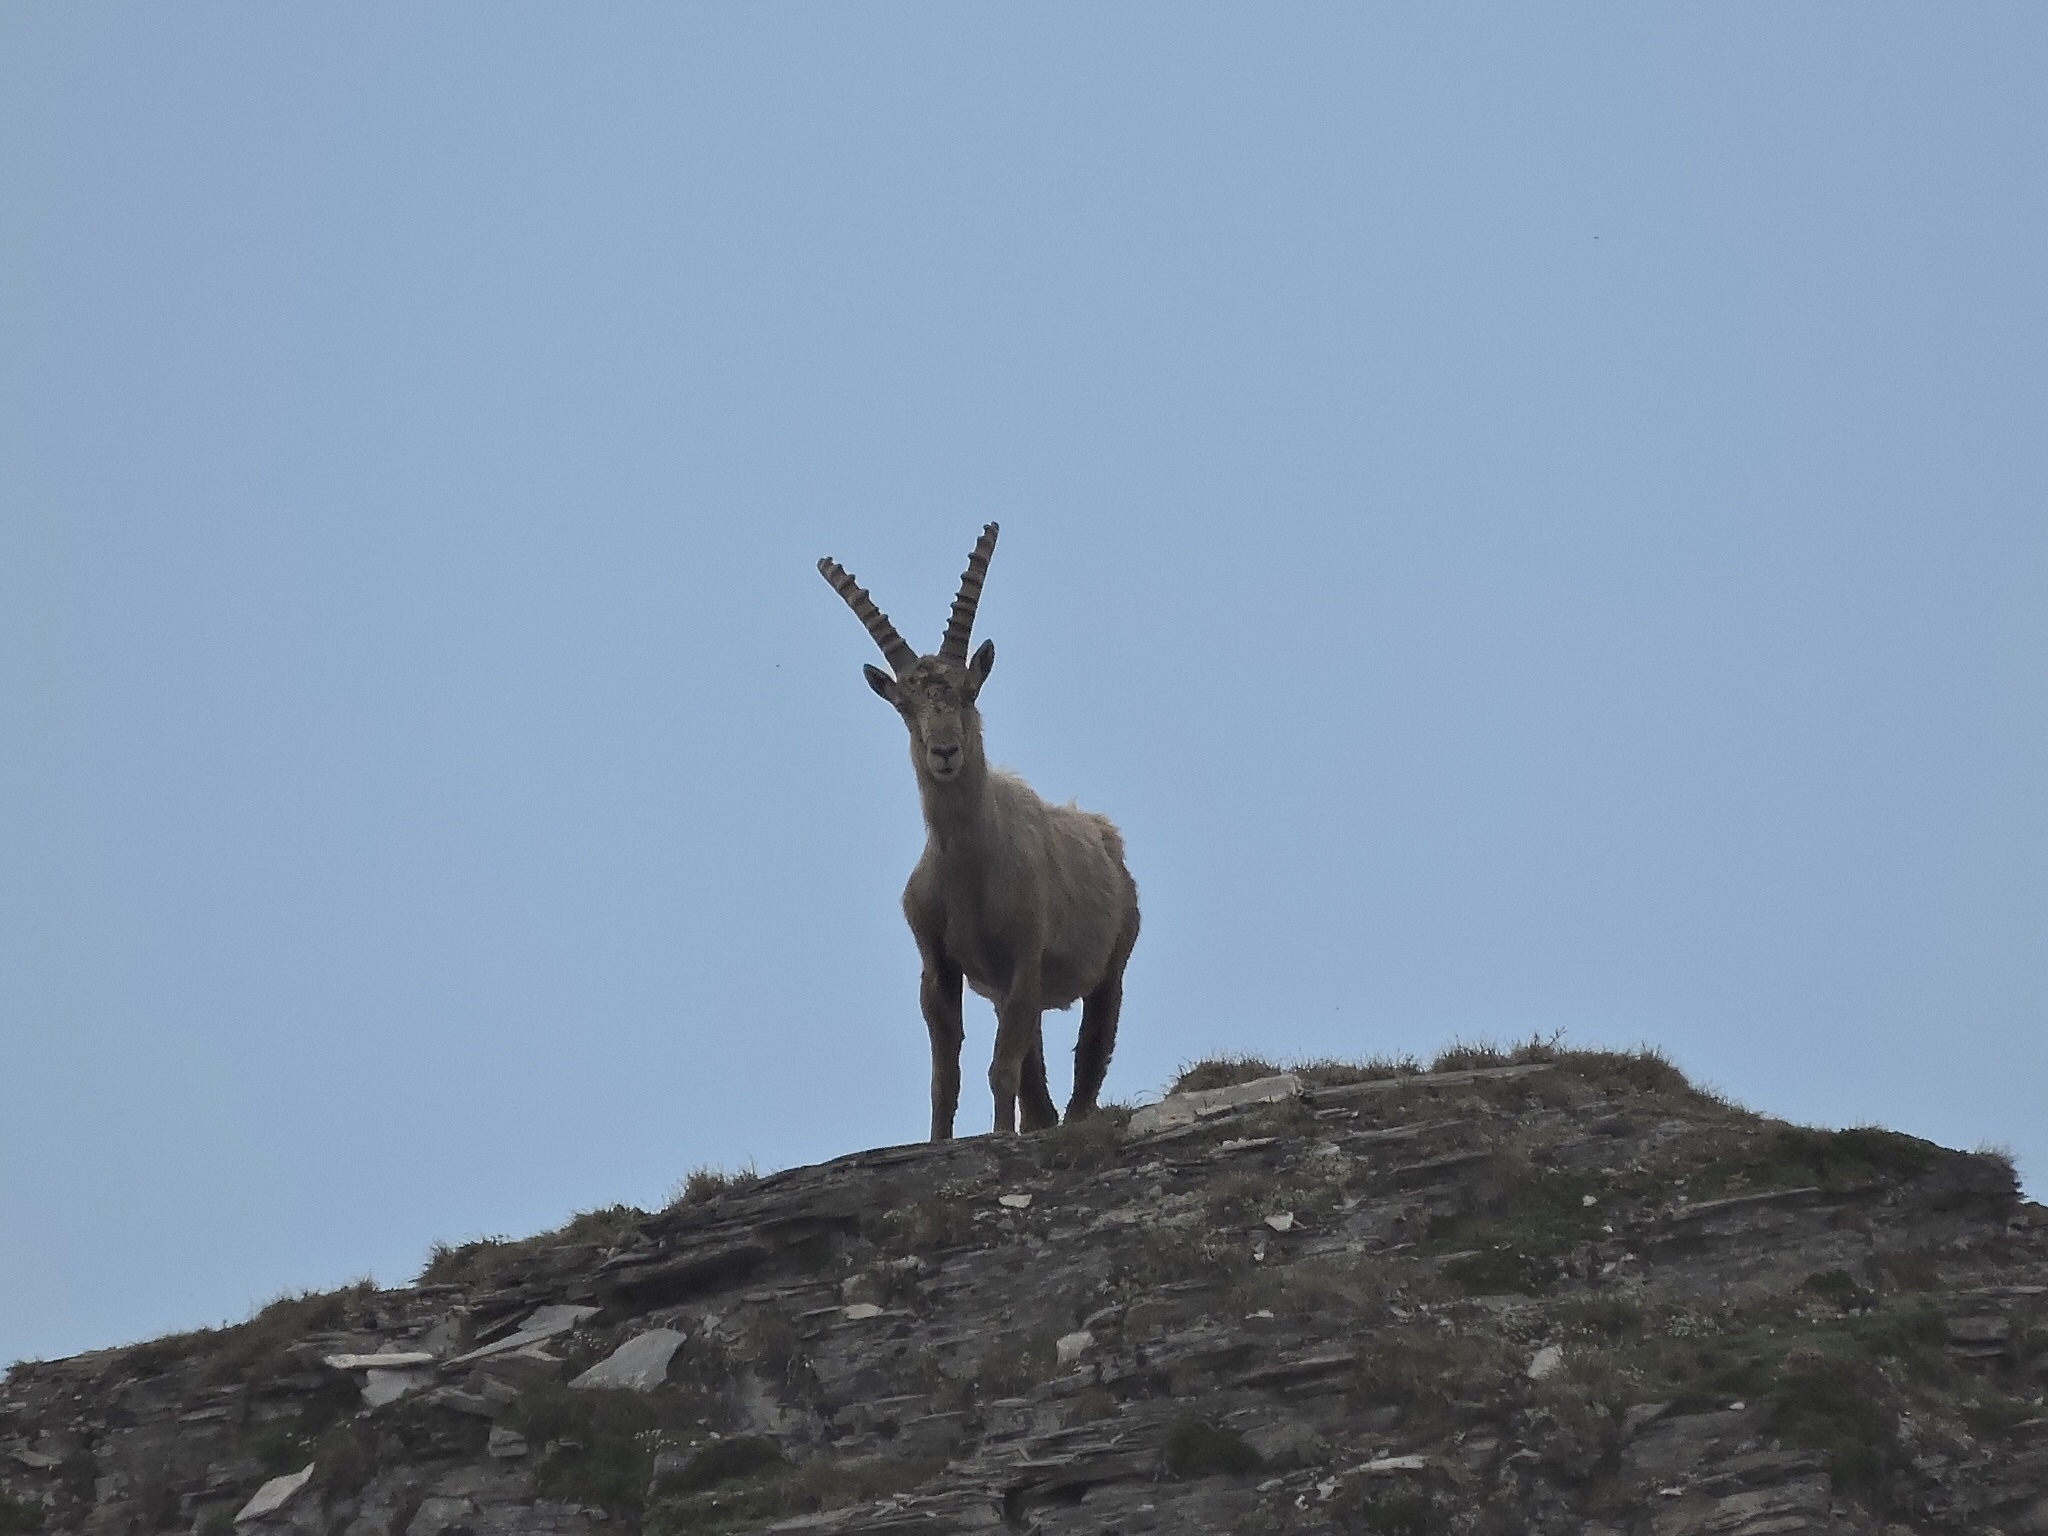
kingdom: Animalia
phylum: Chordata
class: Mammalia
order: Artiodactyla
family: Bovidae
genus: Capra
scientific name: Capra ibex
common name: Alpine ibex
